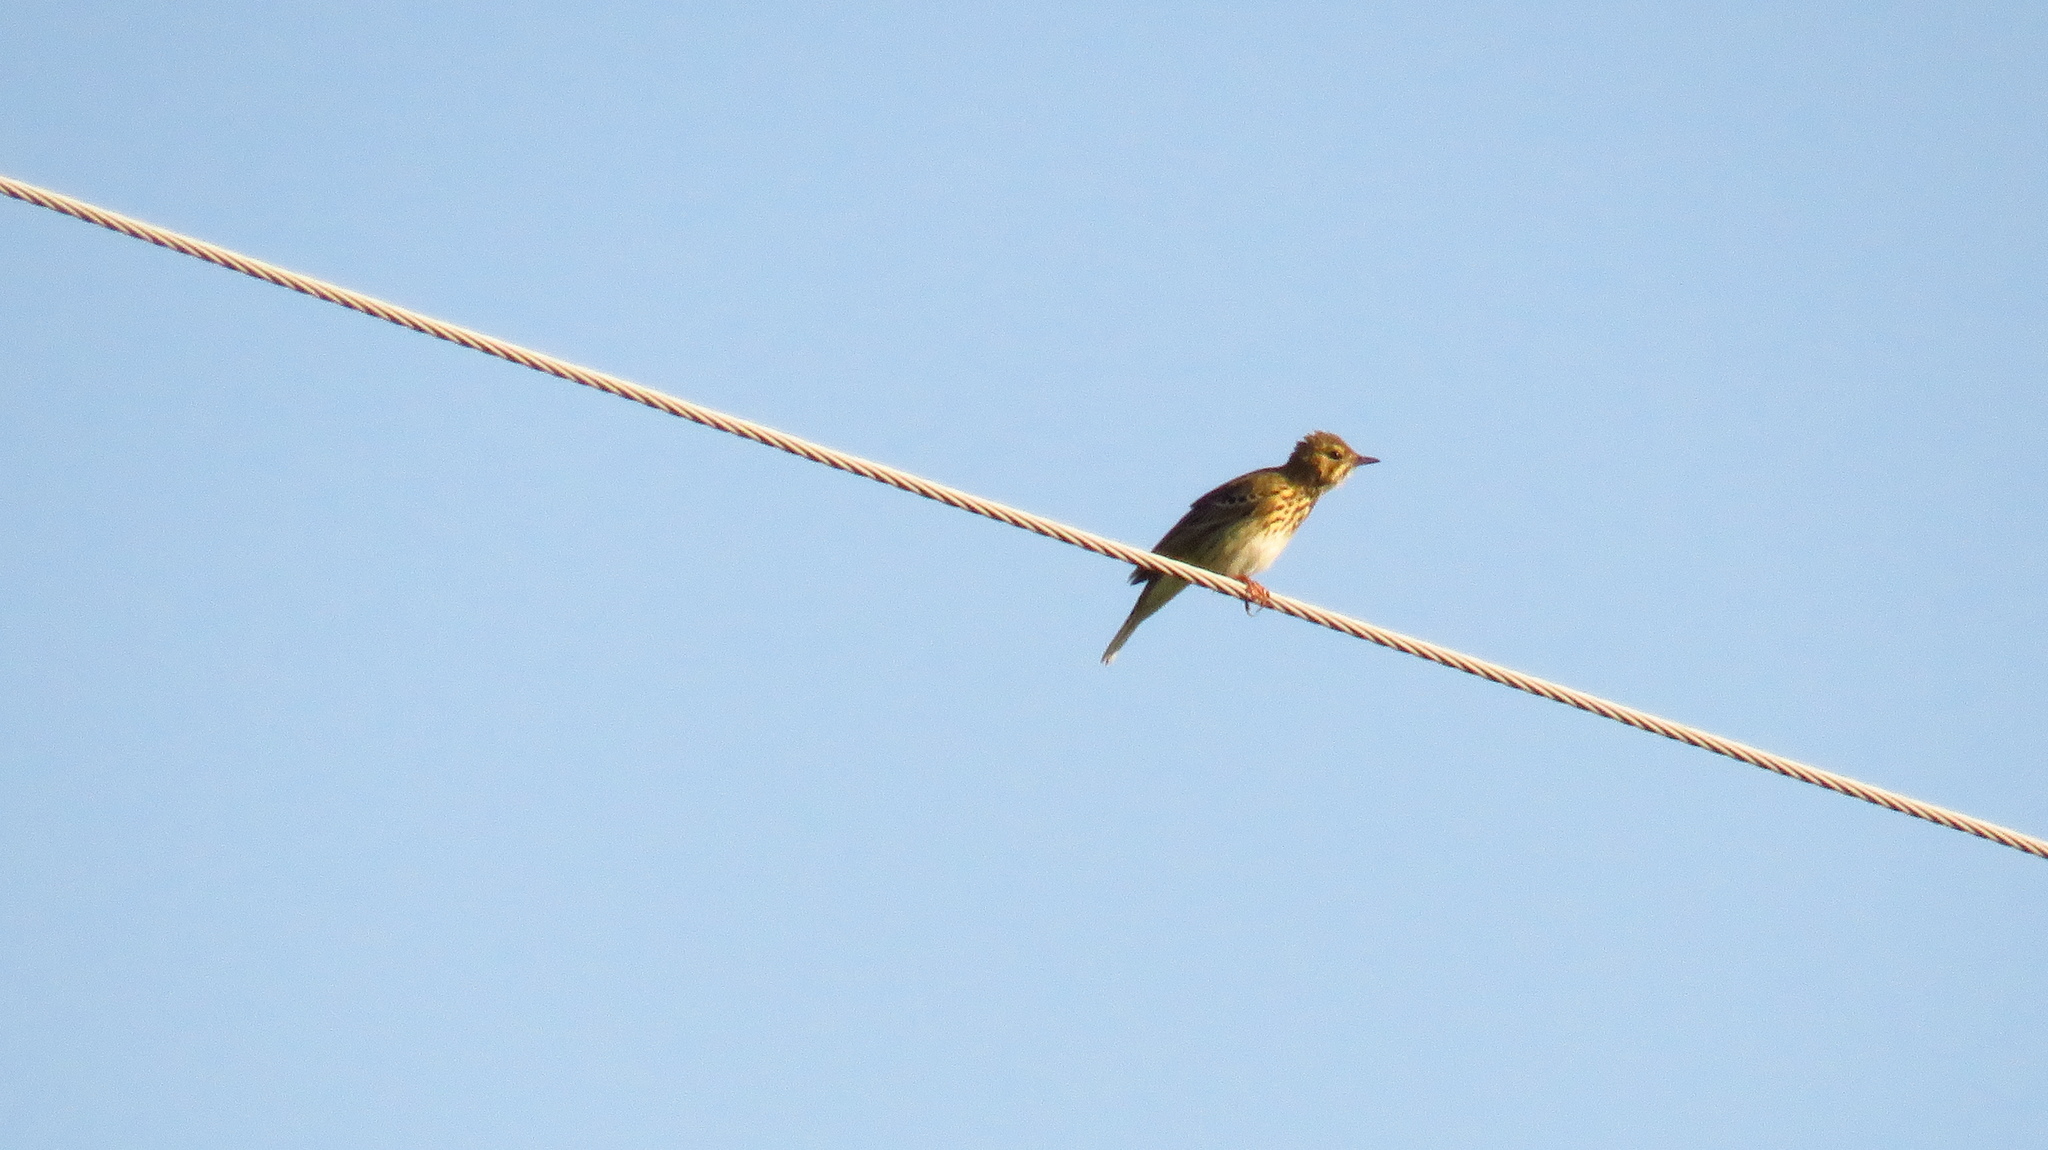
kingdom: Animalia
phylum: Chordata
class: Aves
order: Passeriformes
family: Motacillidae
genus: Anthus
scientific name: Anthus trivialis
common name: Tree pipit
